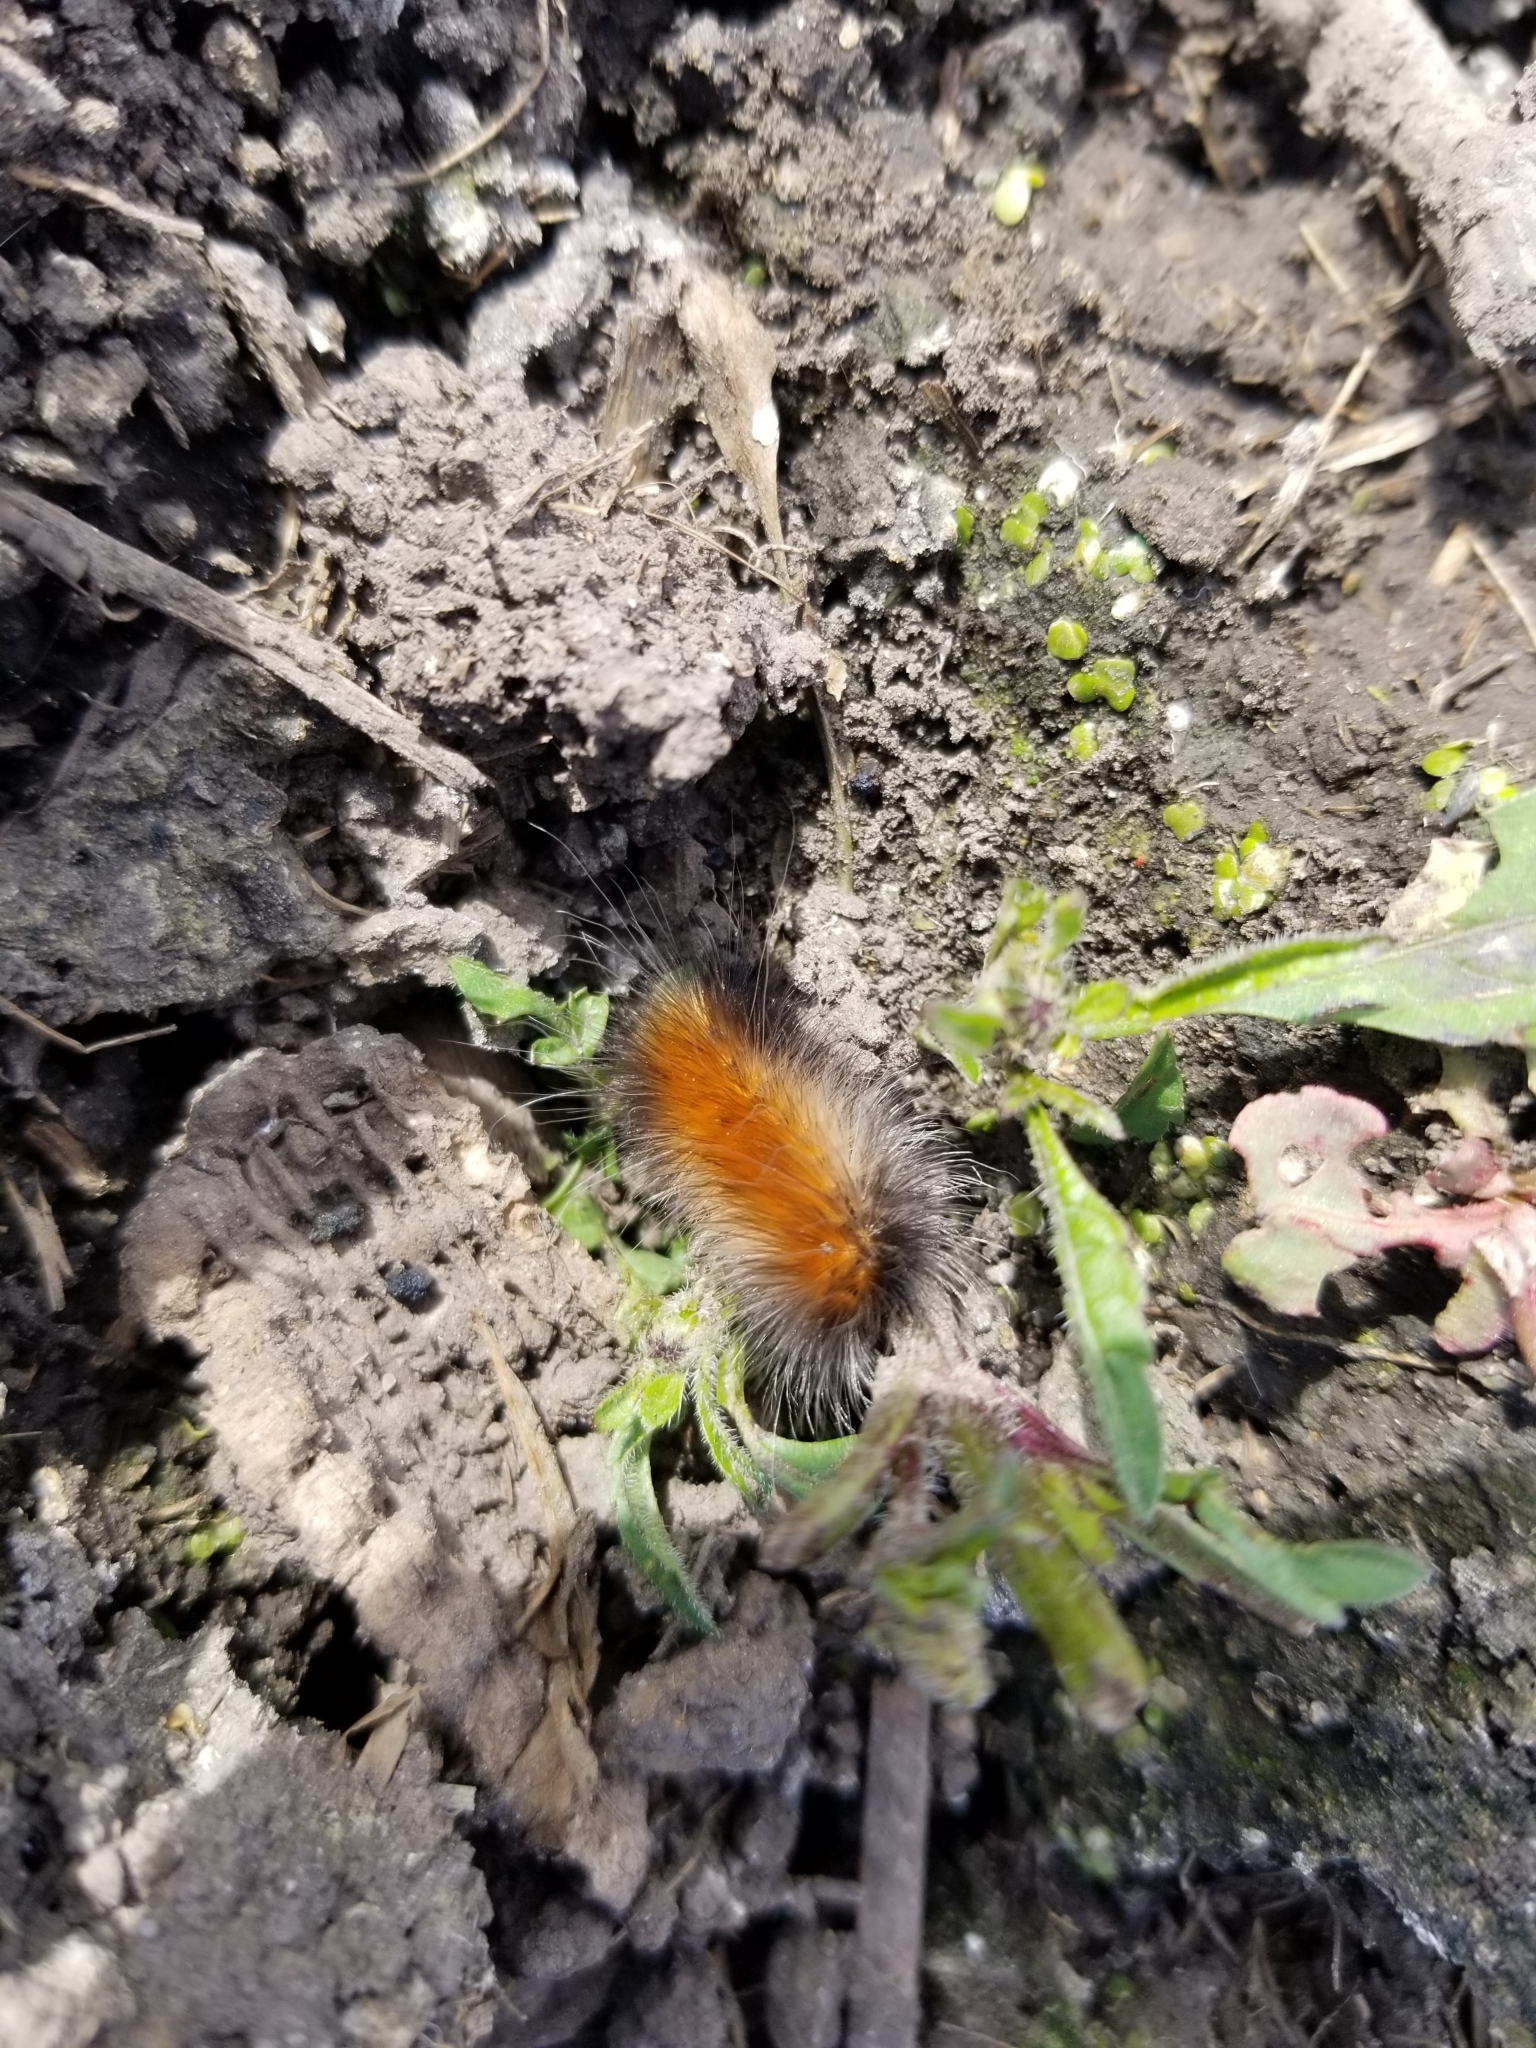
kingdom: Animalia
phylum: Arthropoda
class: Insecta
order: Lepidoptera
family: Erebidae
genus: Spilosoma
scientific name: Spilosoma virginica
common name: Virginia tiger moth
